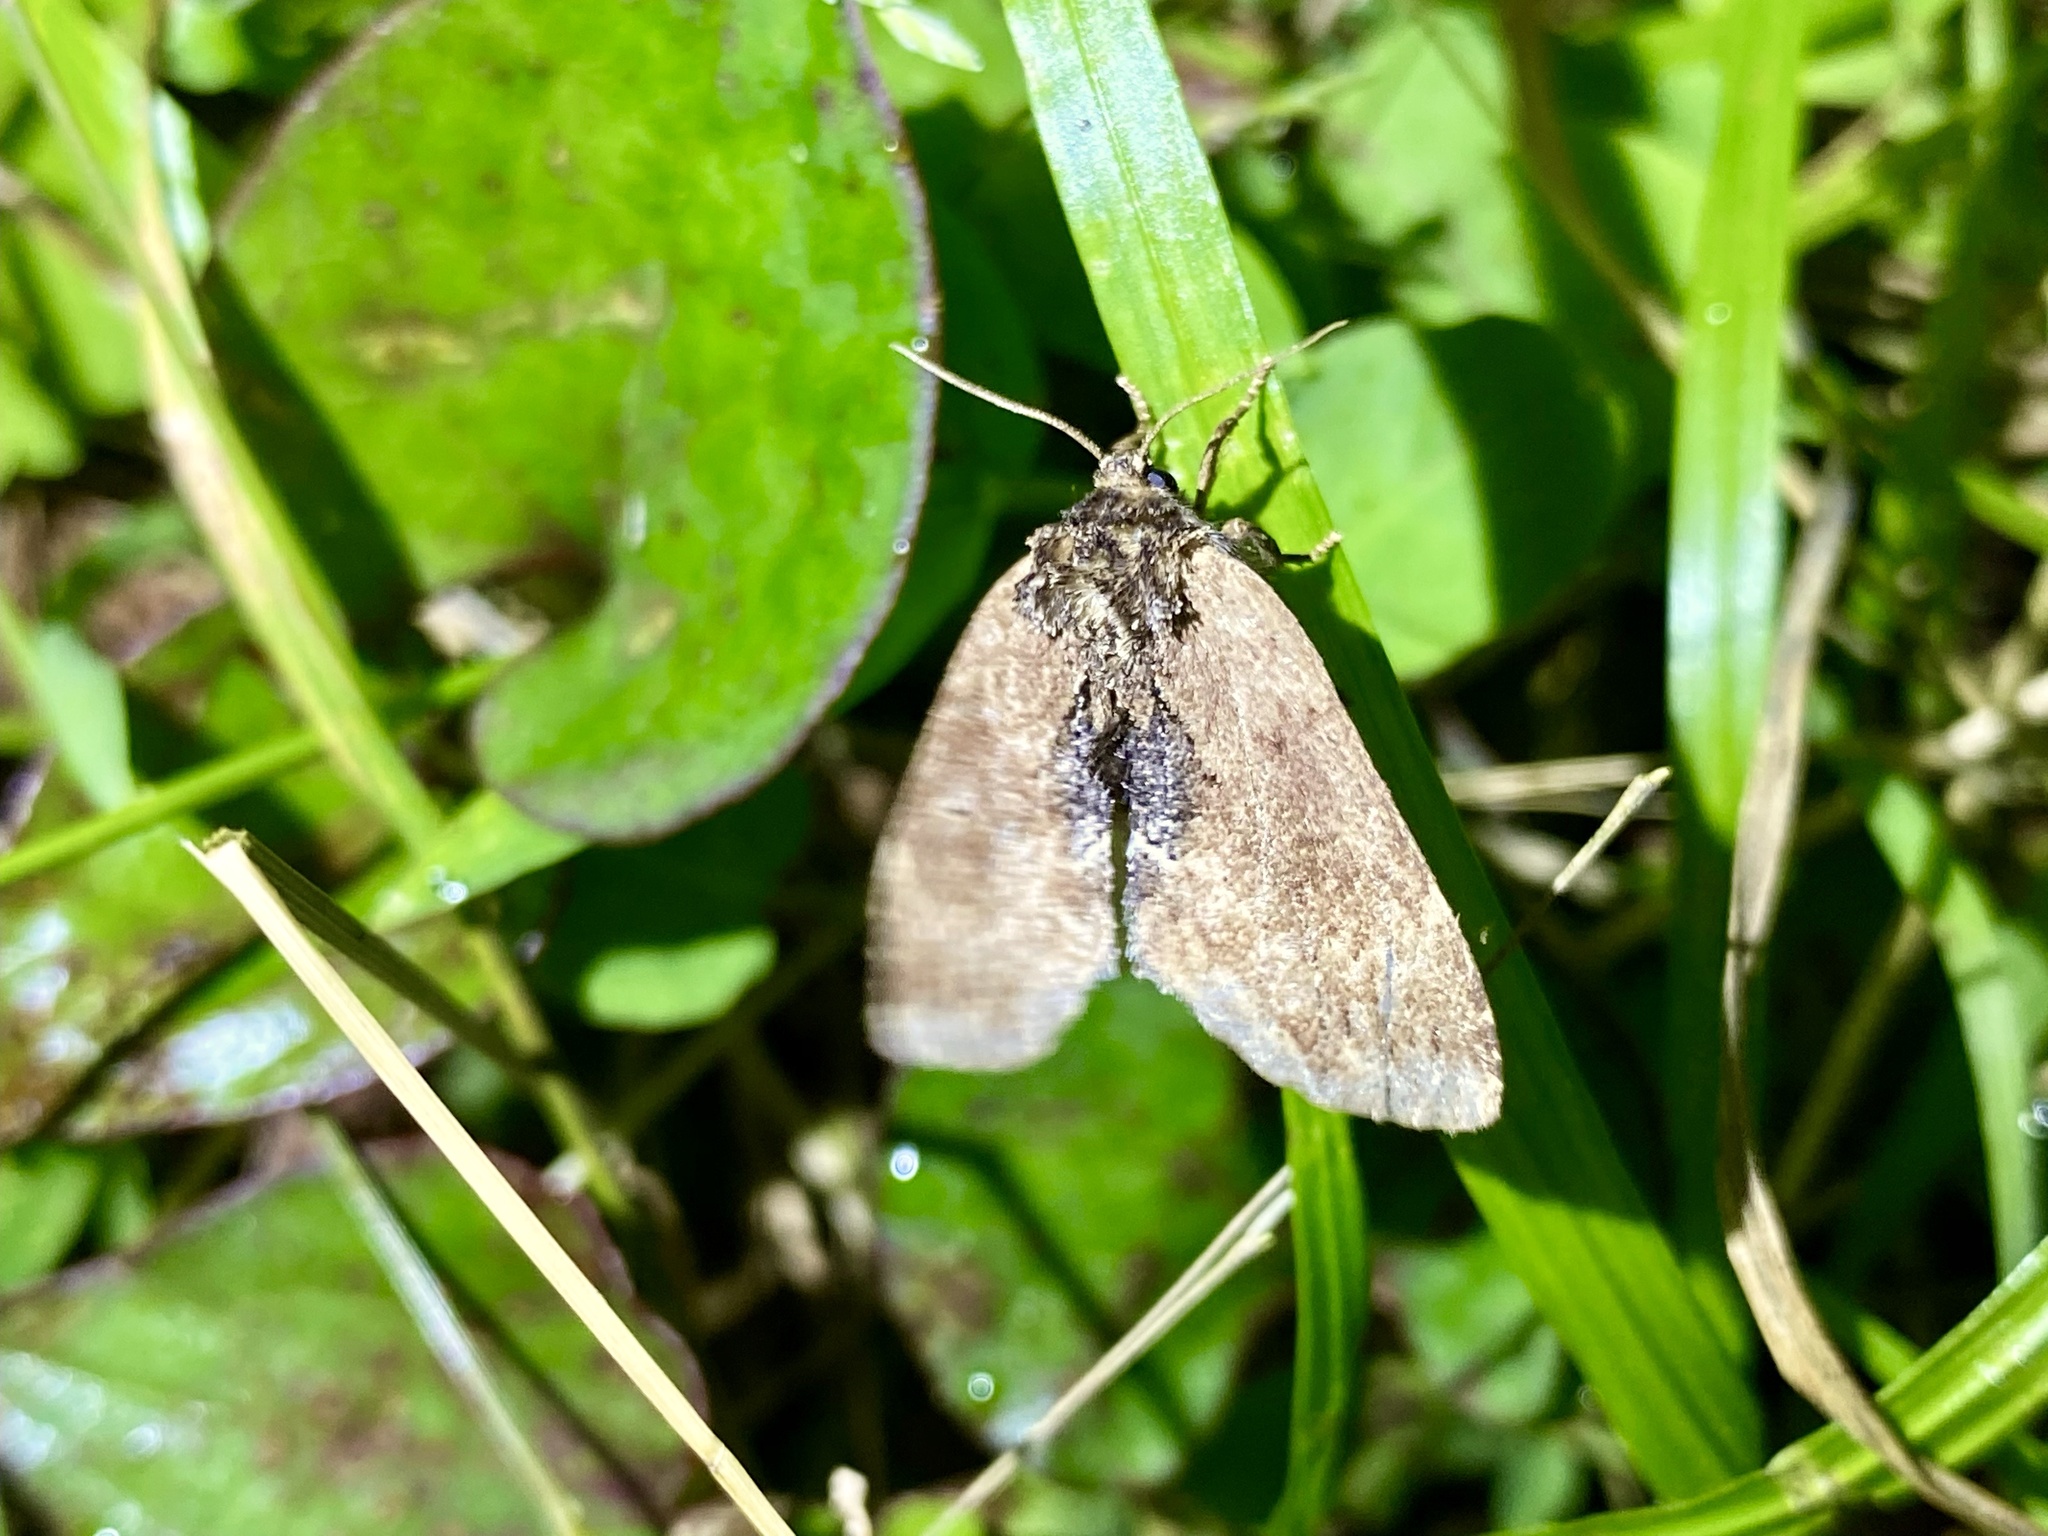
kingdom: Animalia
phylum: Arthropoda
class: Insecta
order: Lepidoptera
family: Notodontidae
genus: Lophontosia
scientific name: Lophontosia
